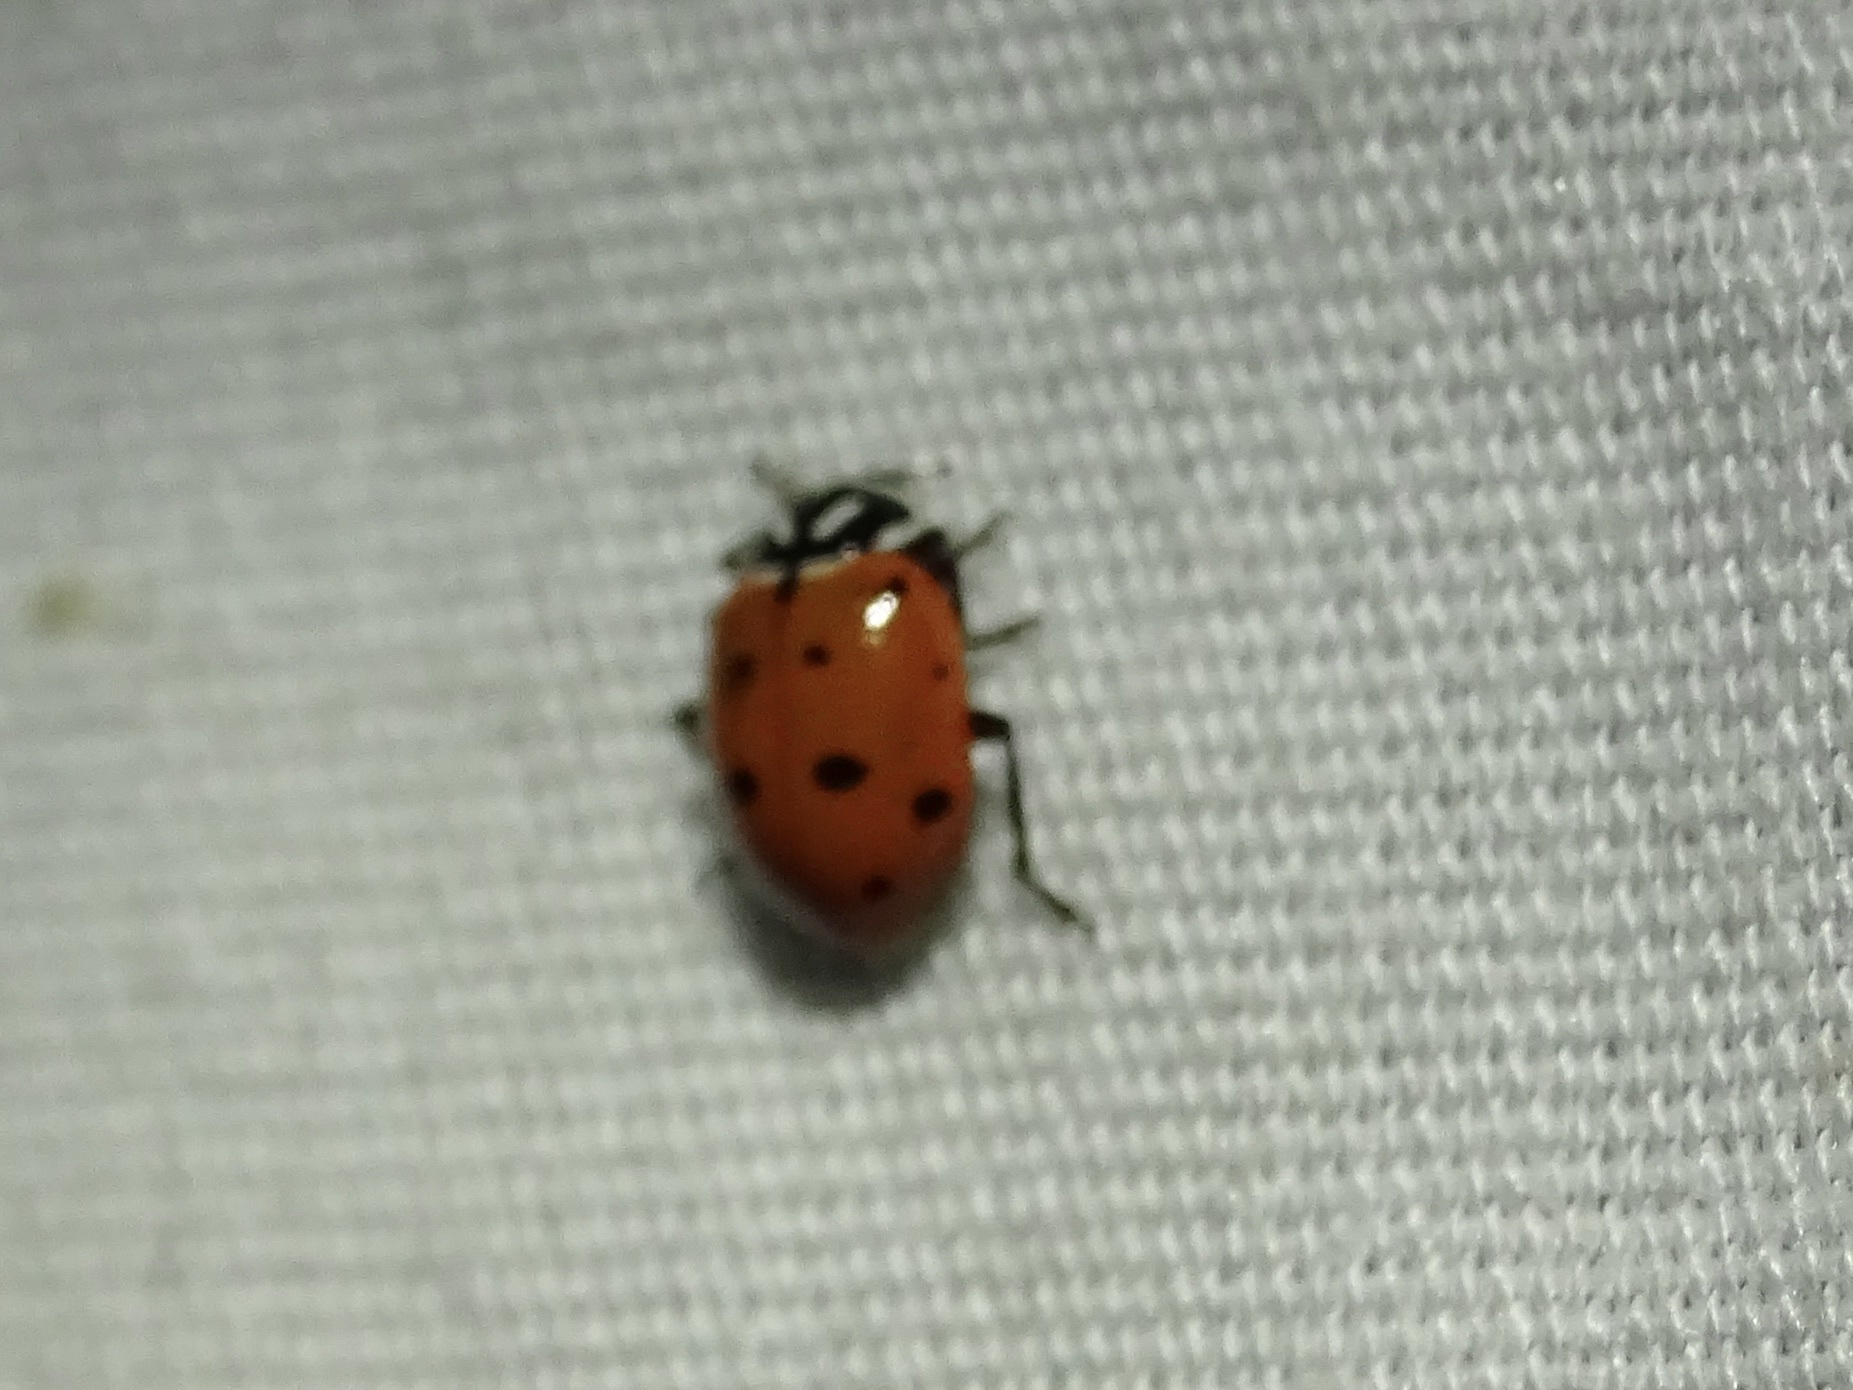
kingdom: Animalia
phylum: Arthropoda
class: Insecta
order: Coleoptera
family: Coccinellidae
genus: Hippodamia
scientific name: Hippodamia convergens
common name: Convergent lady beetle
